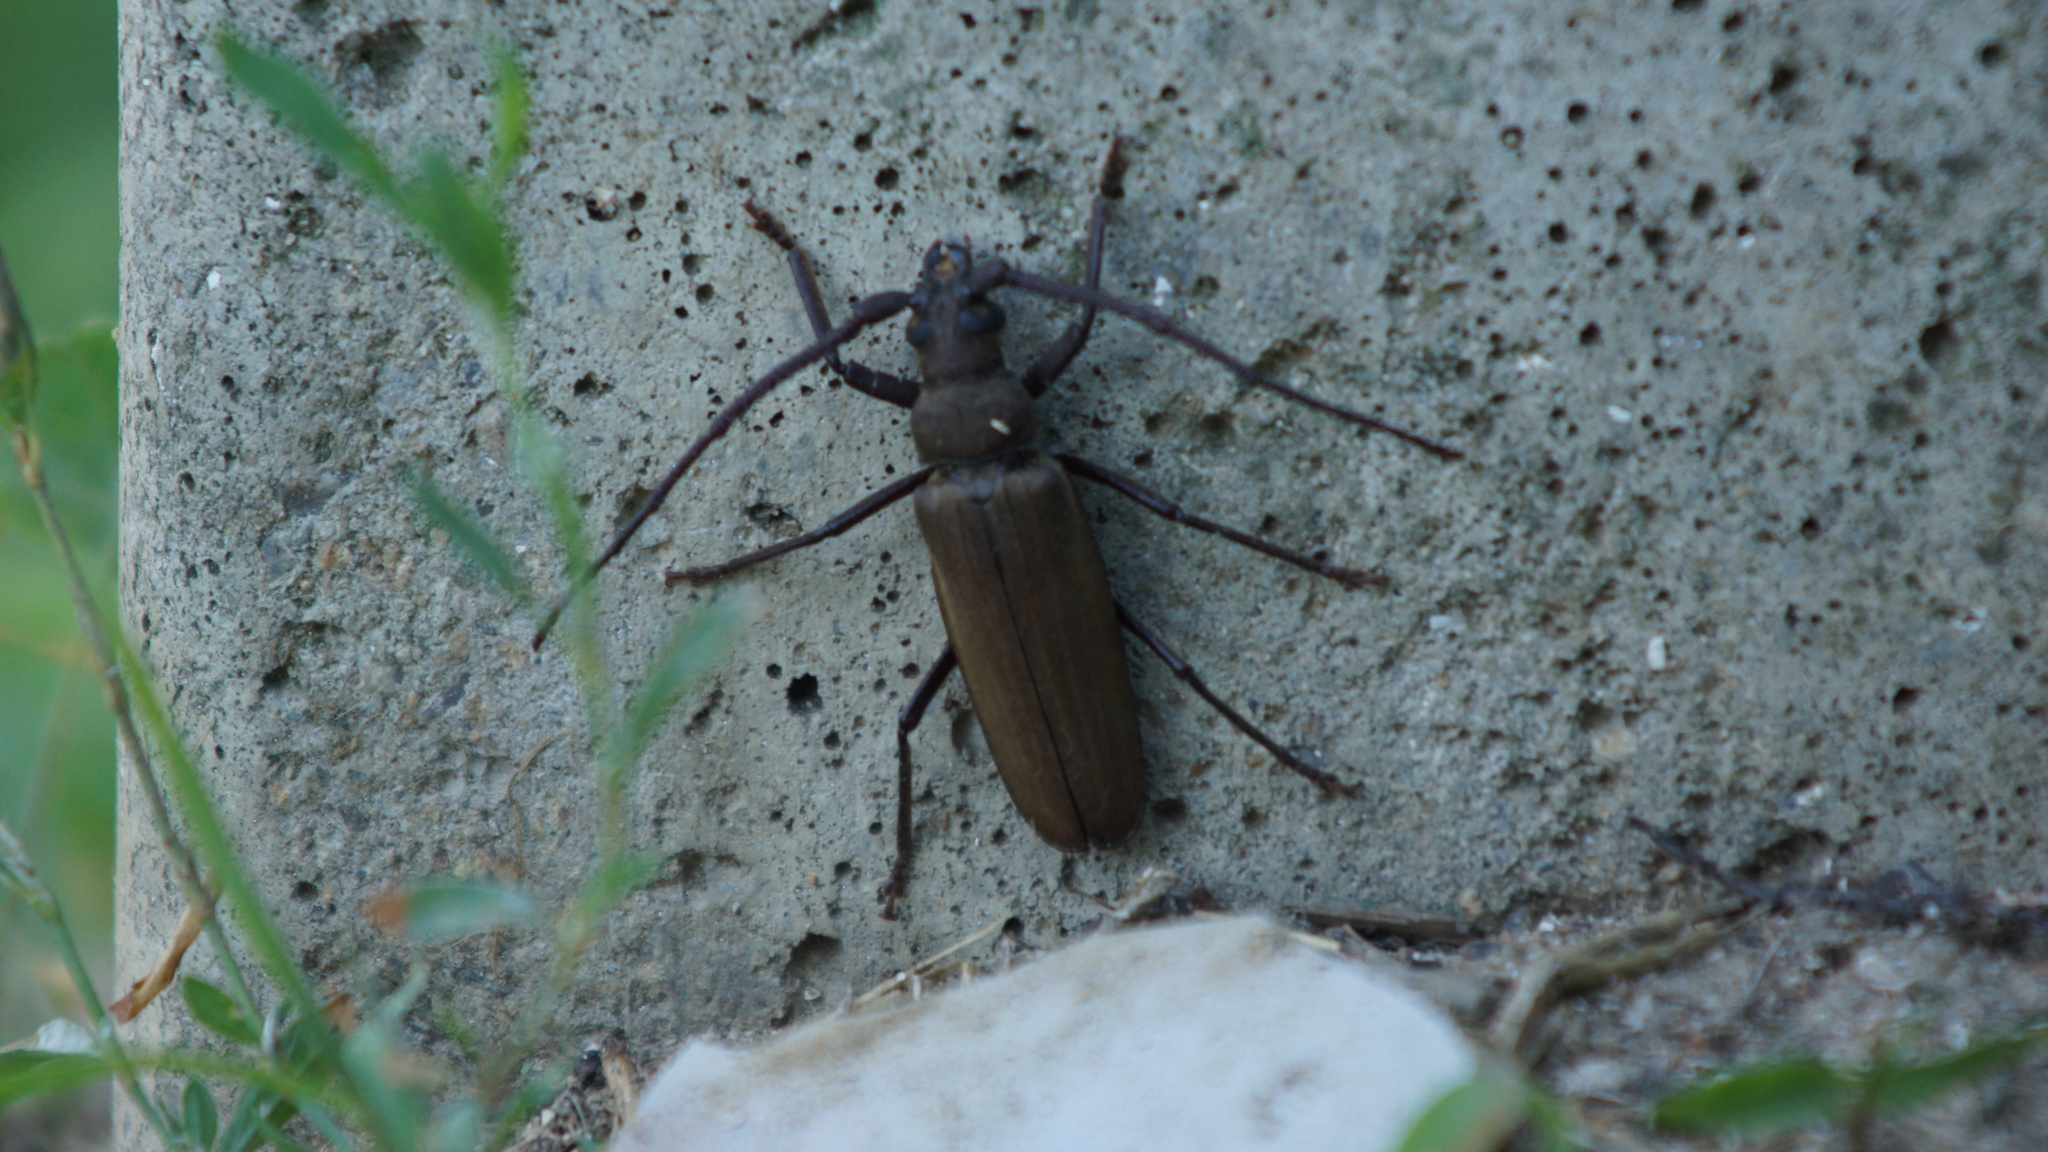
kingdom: Animalia
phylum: Arthropoda
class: Insecta
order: Coleoptera
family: Cerambycidae
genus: Aegosoma
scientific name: Aegosoma scabricorne
